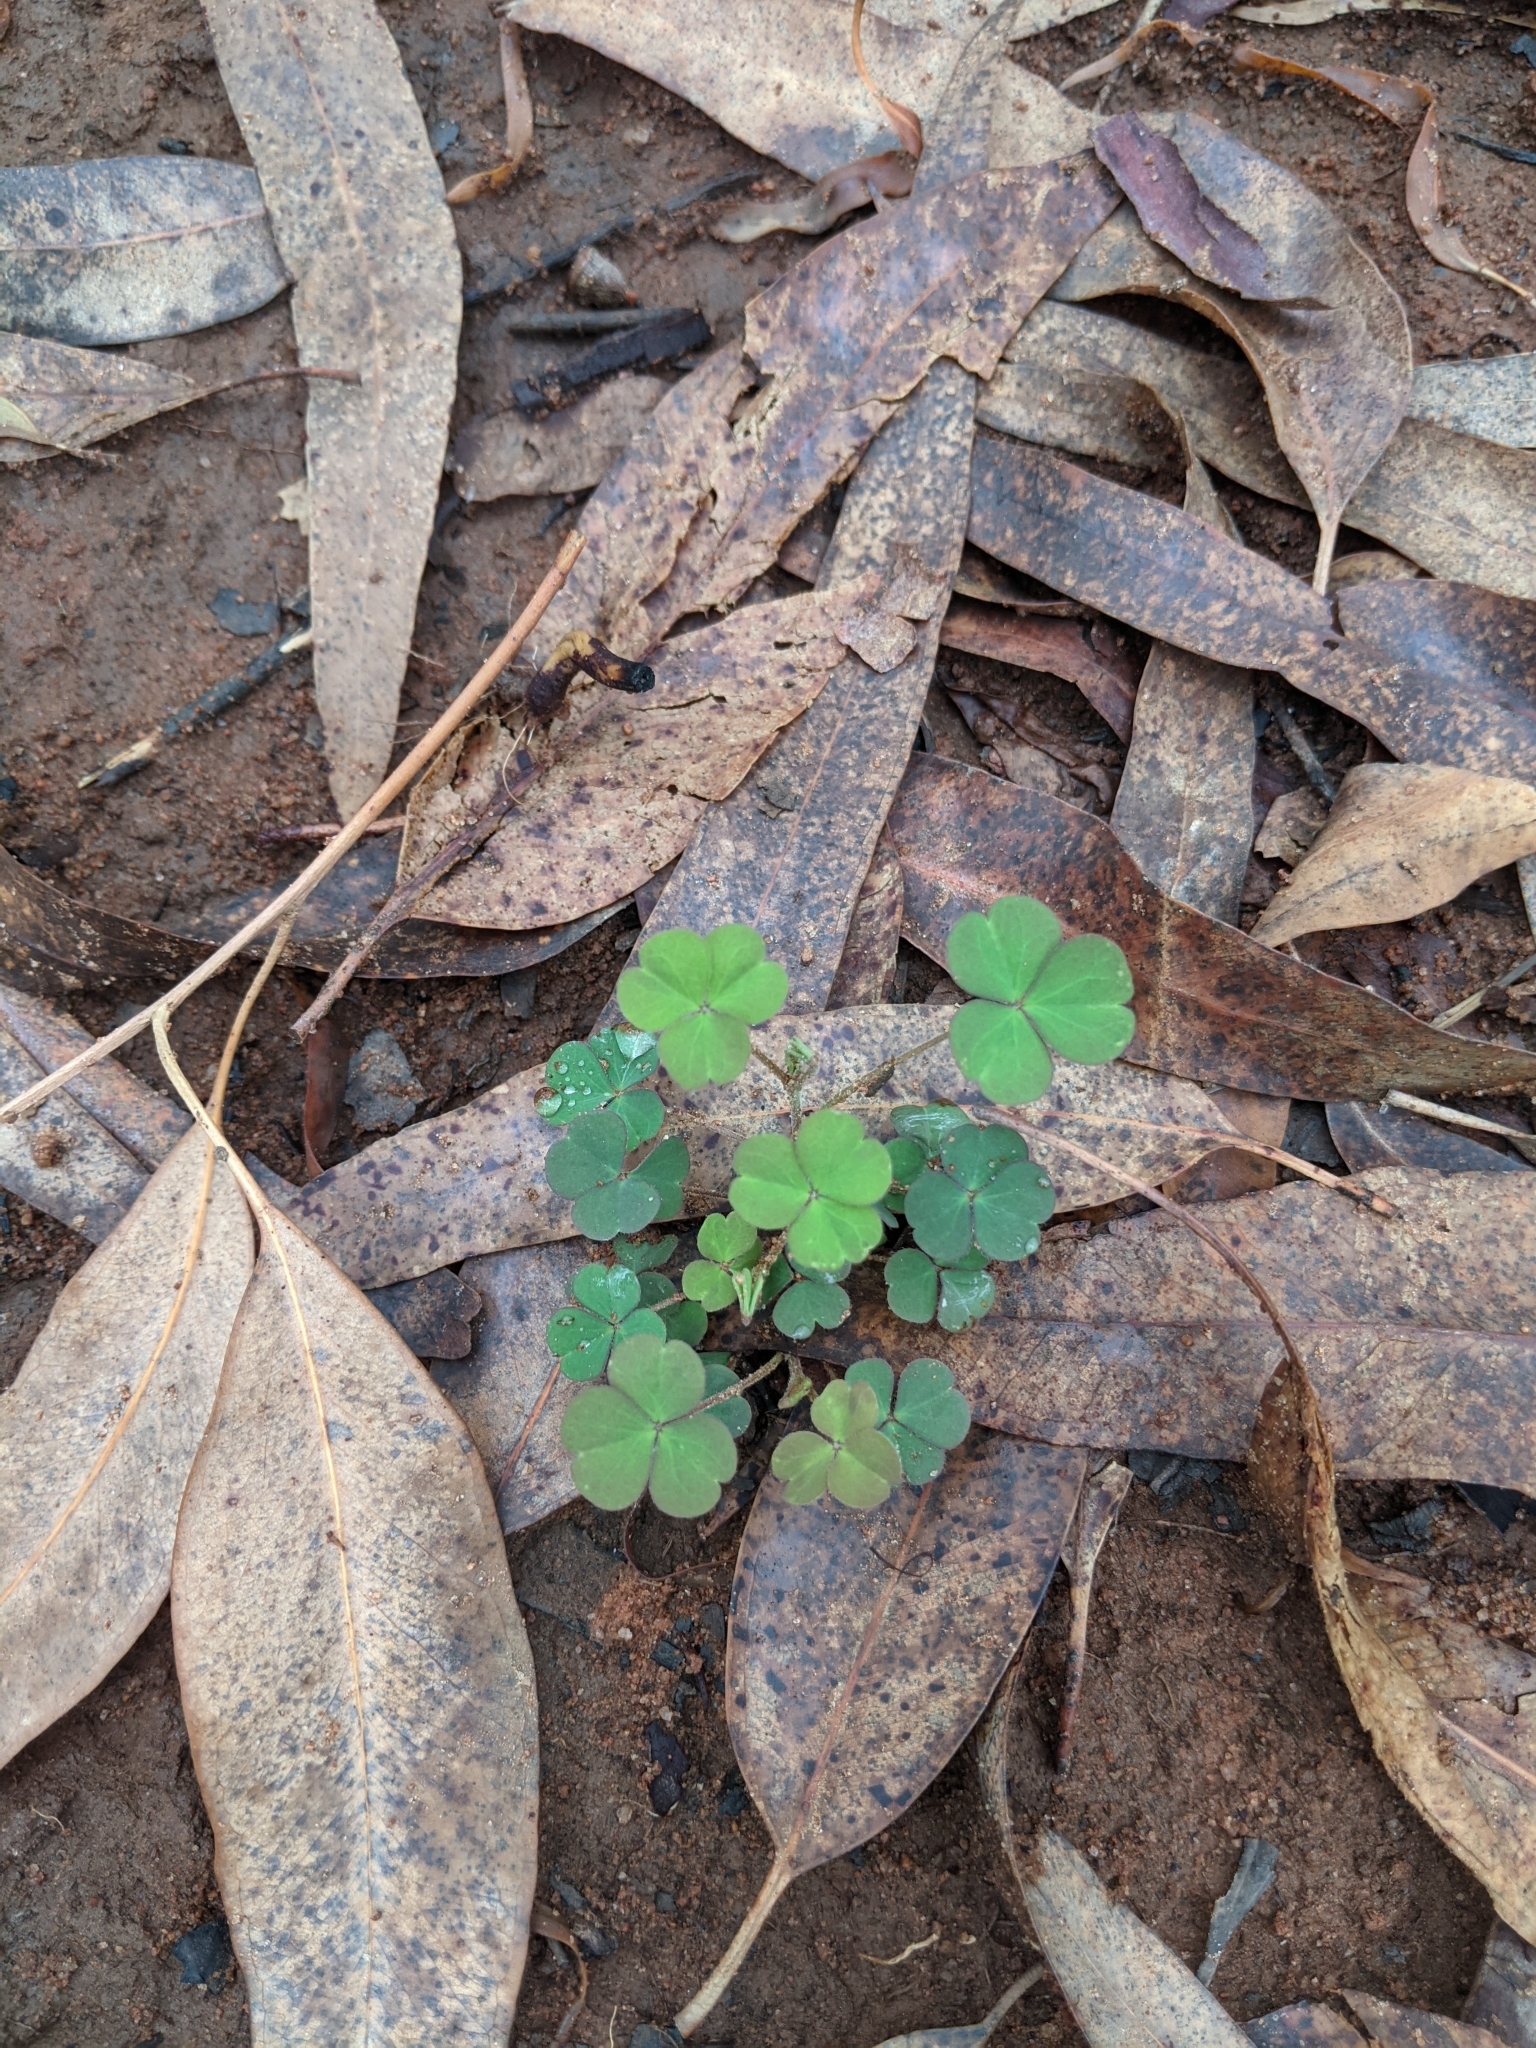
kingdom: Plantae
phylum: Tracheophyta
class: Magnoliopsida
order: Oxalidales
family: Oxalidaceae
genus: Oxalis
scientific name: Oxalis corniculata
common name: Procumbent yellow-sorrel
